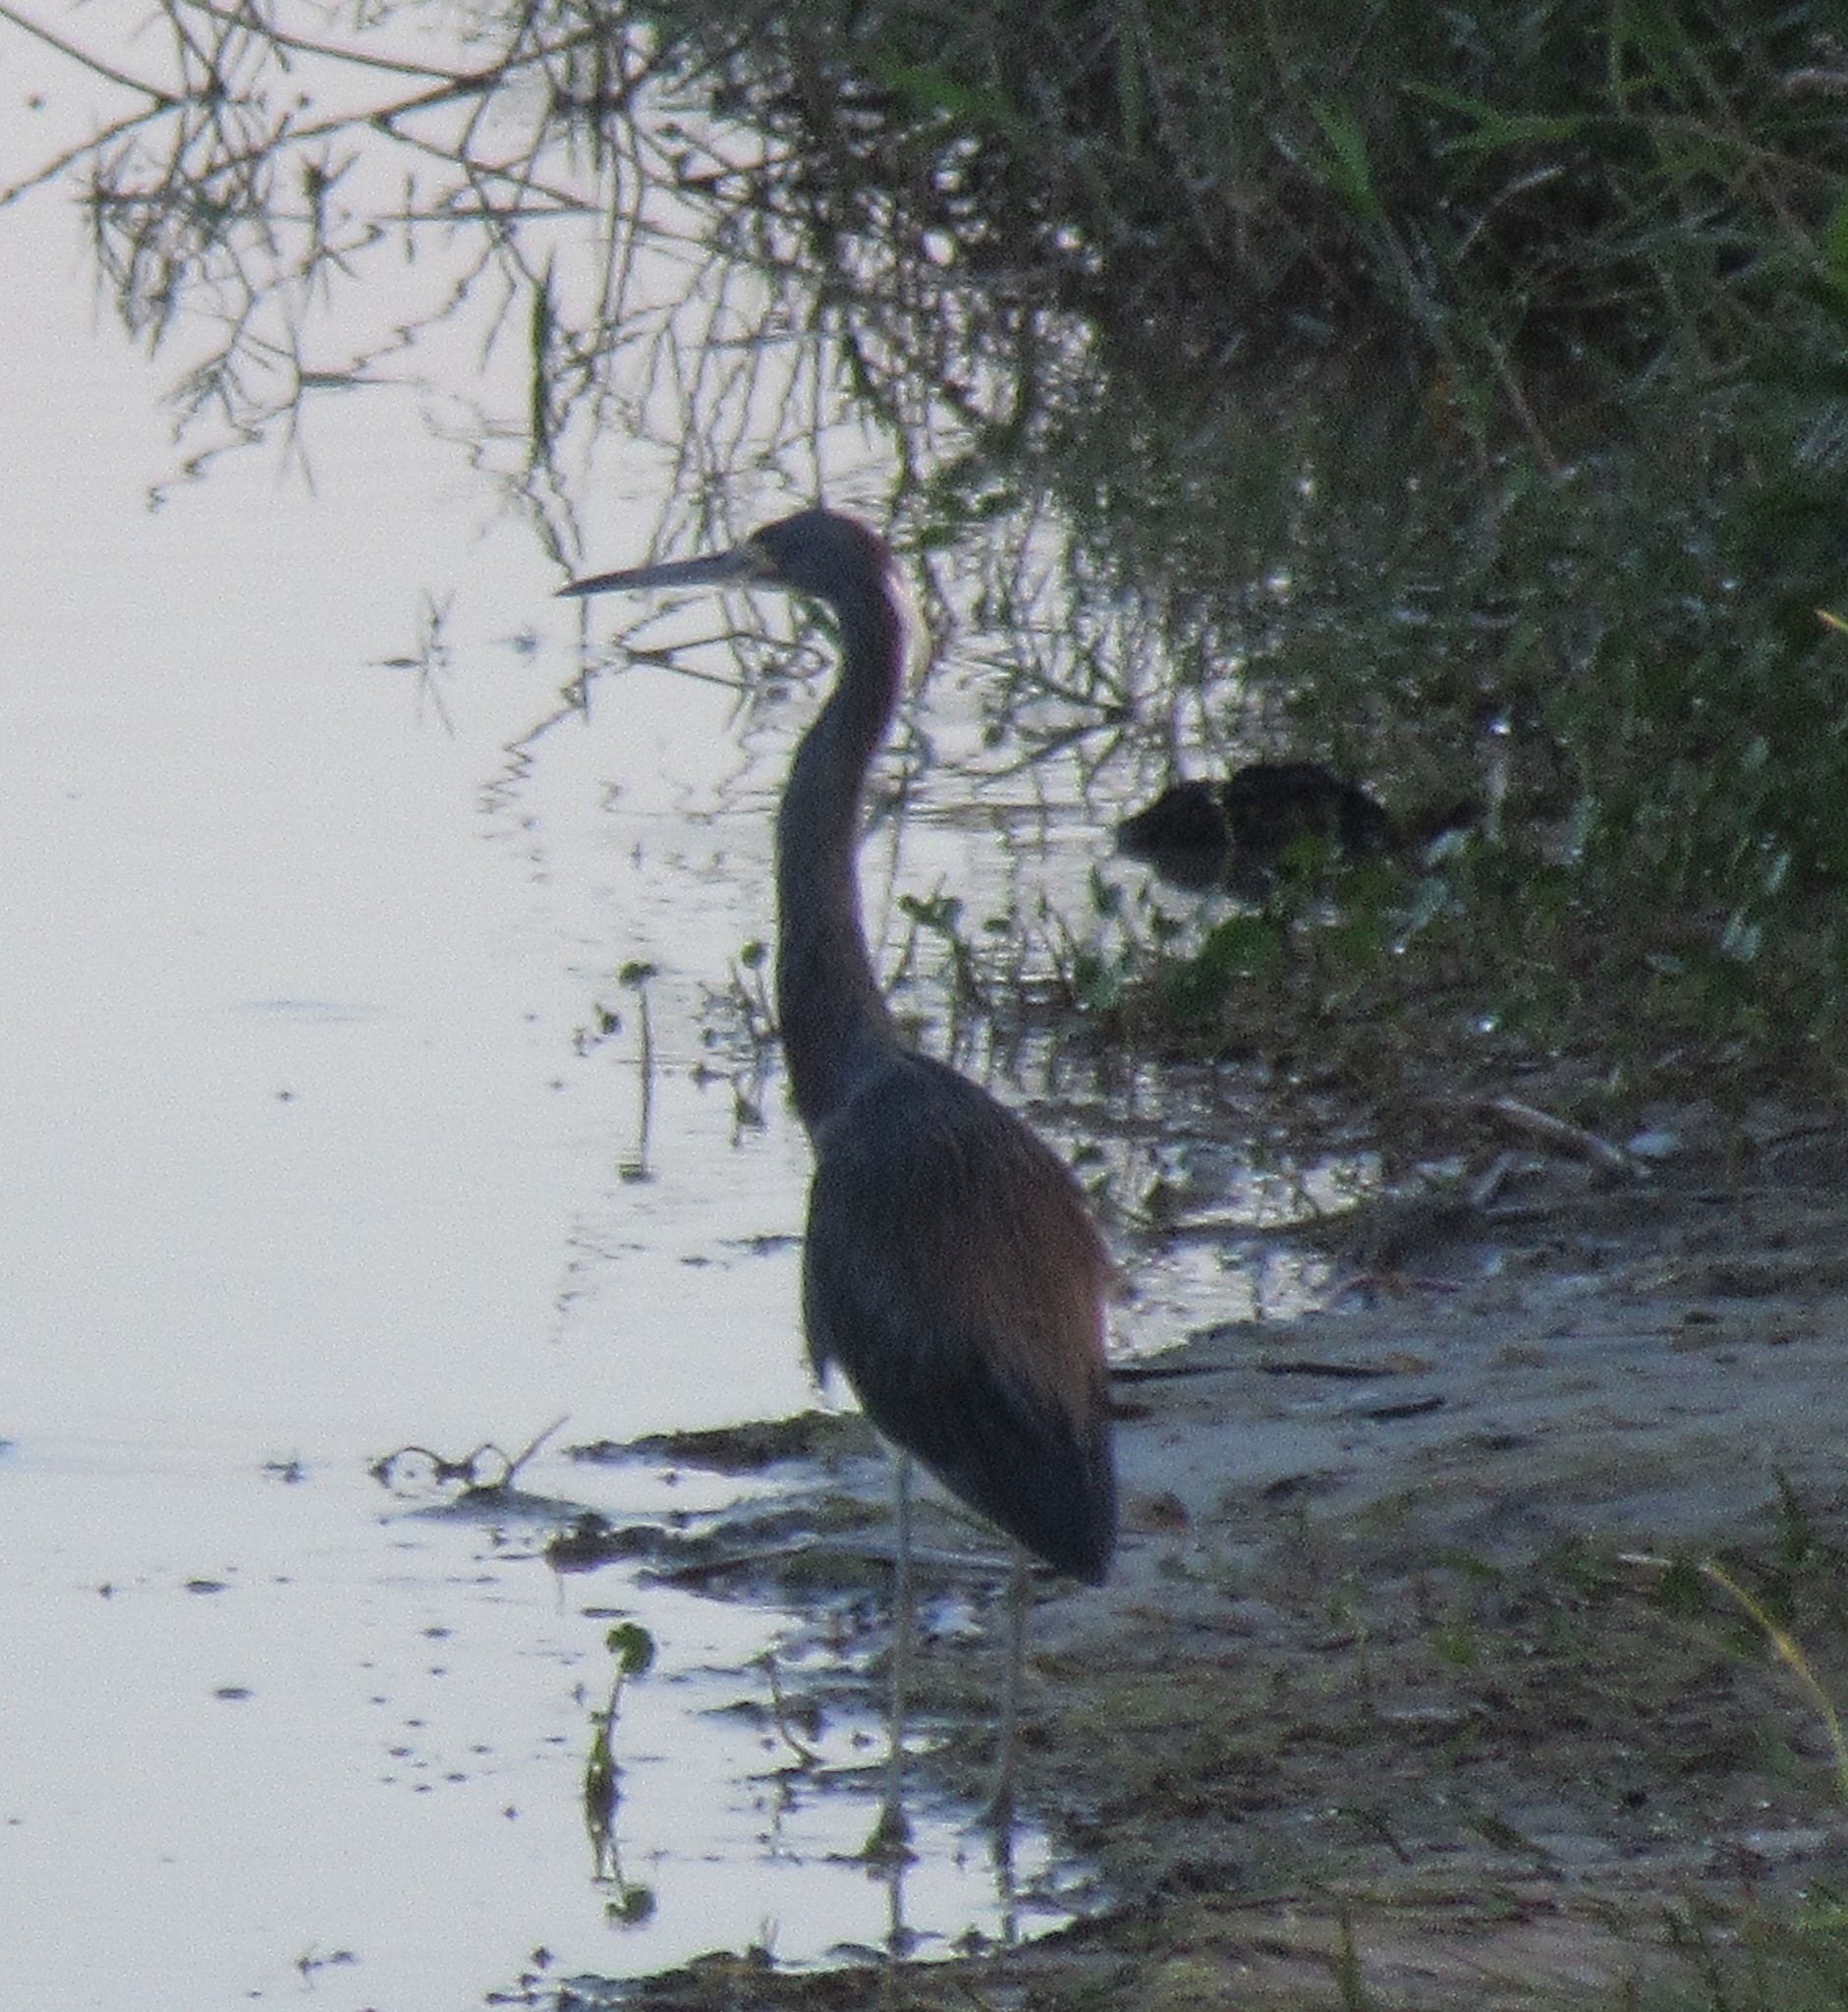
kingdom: Animalia
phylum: Chordata
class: Aves
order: Pelecaniformes
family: Ardeidae
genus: Egretta
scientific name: Egretta tricolor
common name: Tricolored heron
